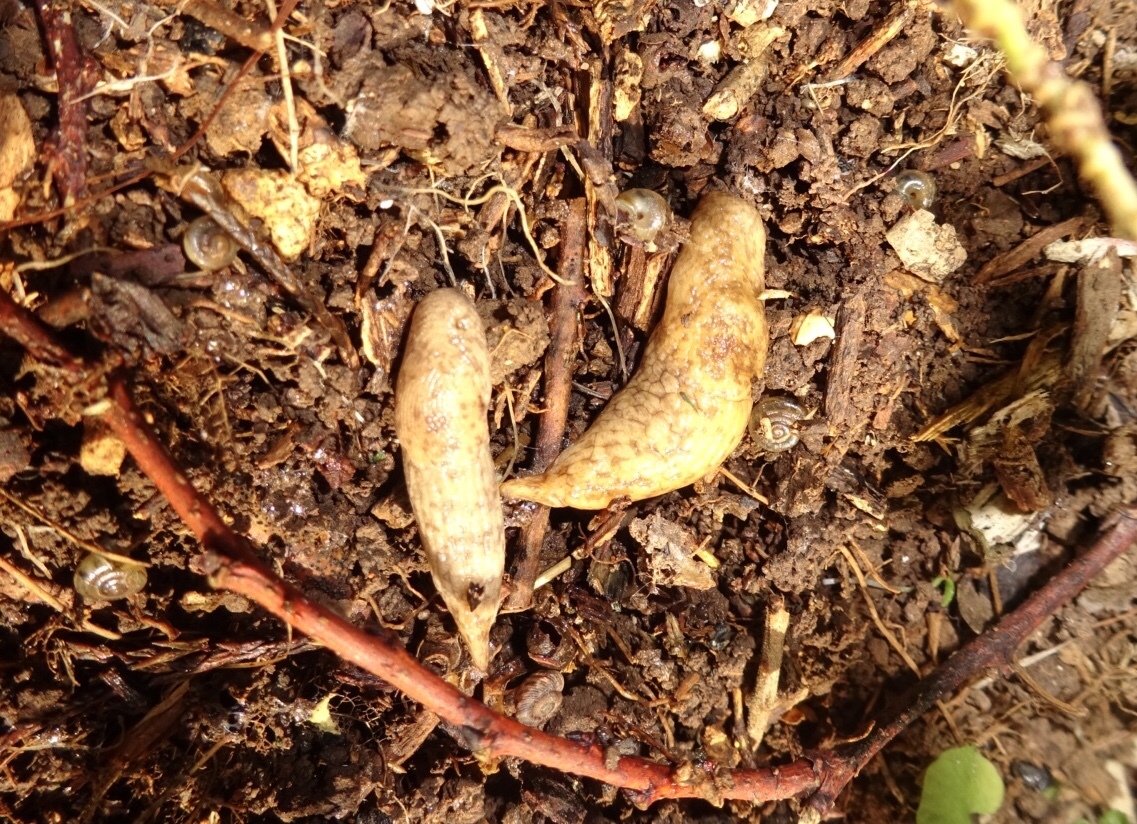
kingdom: Animalia
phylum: Mollusca
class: Gastropoda
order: Stylommatophora
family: Agriolimacidae
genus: Deroceras
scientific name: Deroceras reticulatum
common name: Gray field slug
